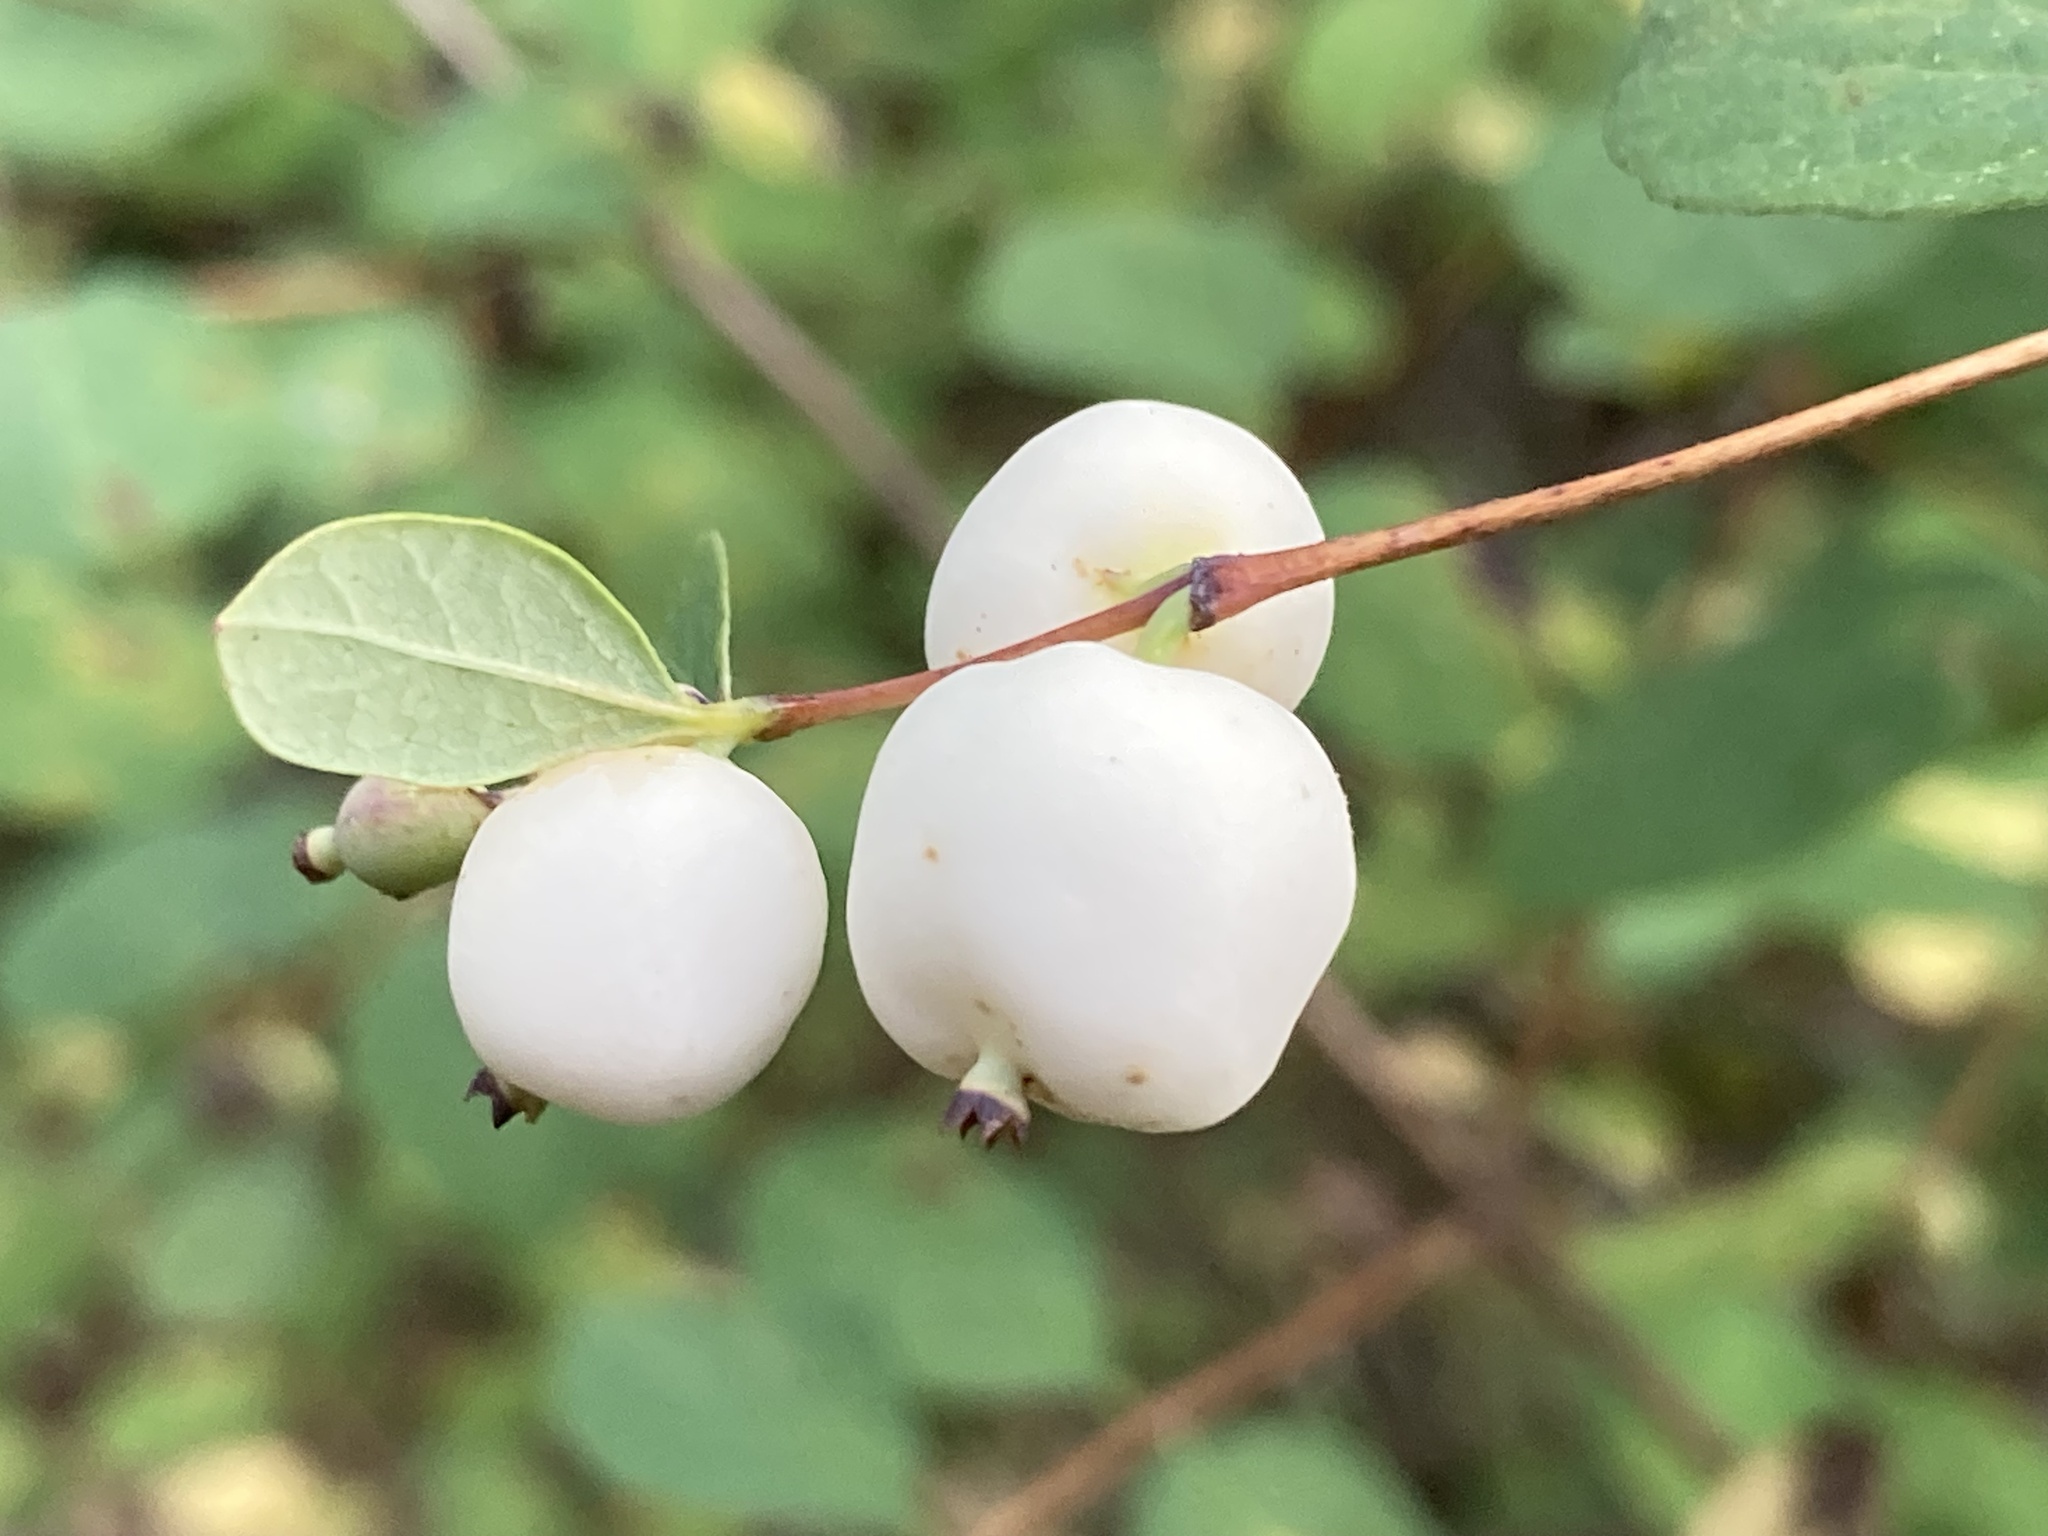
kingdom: Plantae
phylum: Tracheophyta
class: Magnoliopsida
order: Dipsacales
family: Caprifoliaceae
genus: Symphoricarpos
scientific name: Symphoricarpos albus
